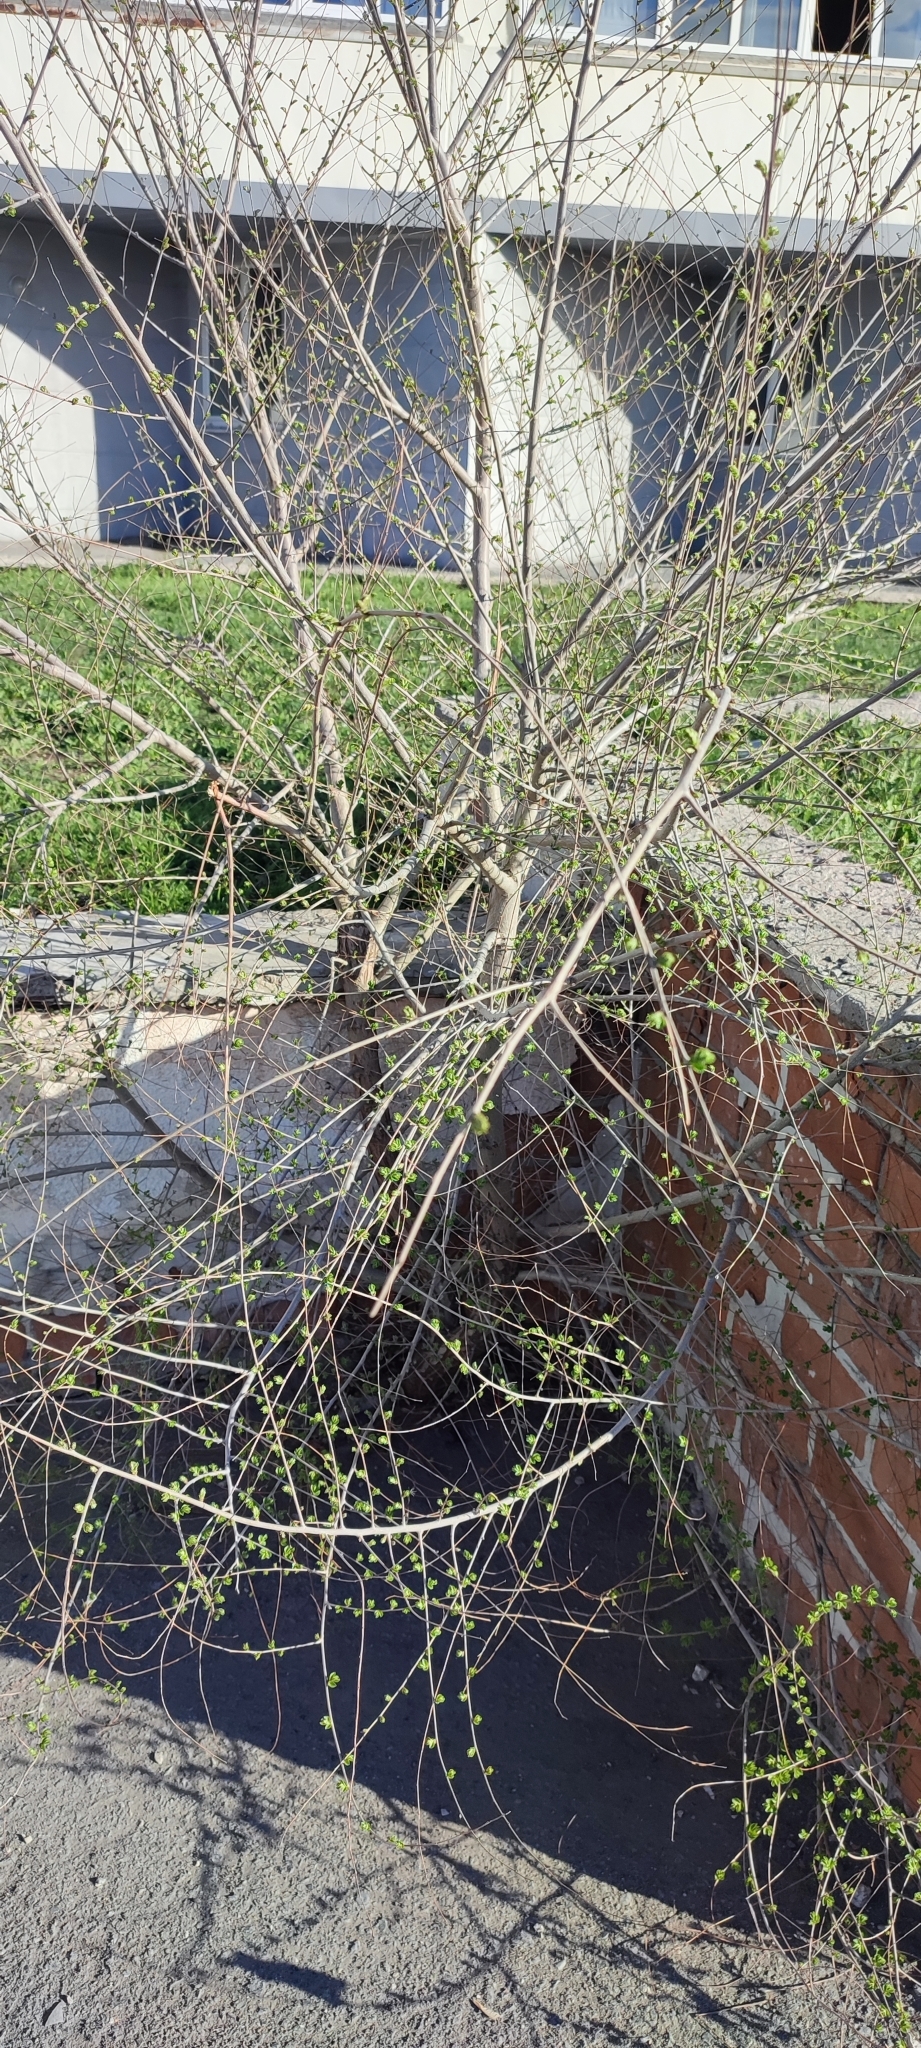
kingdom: Plantae
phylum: Tracheophyta
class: Magnoliopsida
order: Rosales
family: Ulmaceae
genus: Ulmus
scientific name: Ulmus pumila
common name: Siberian elm
